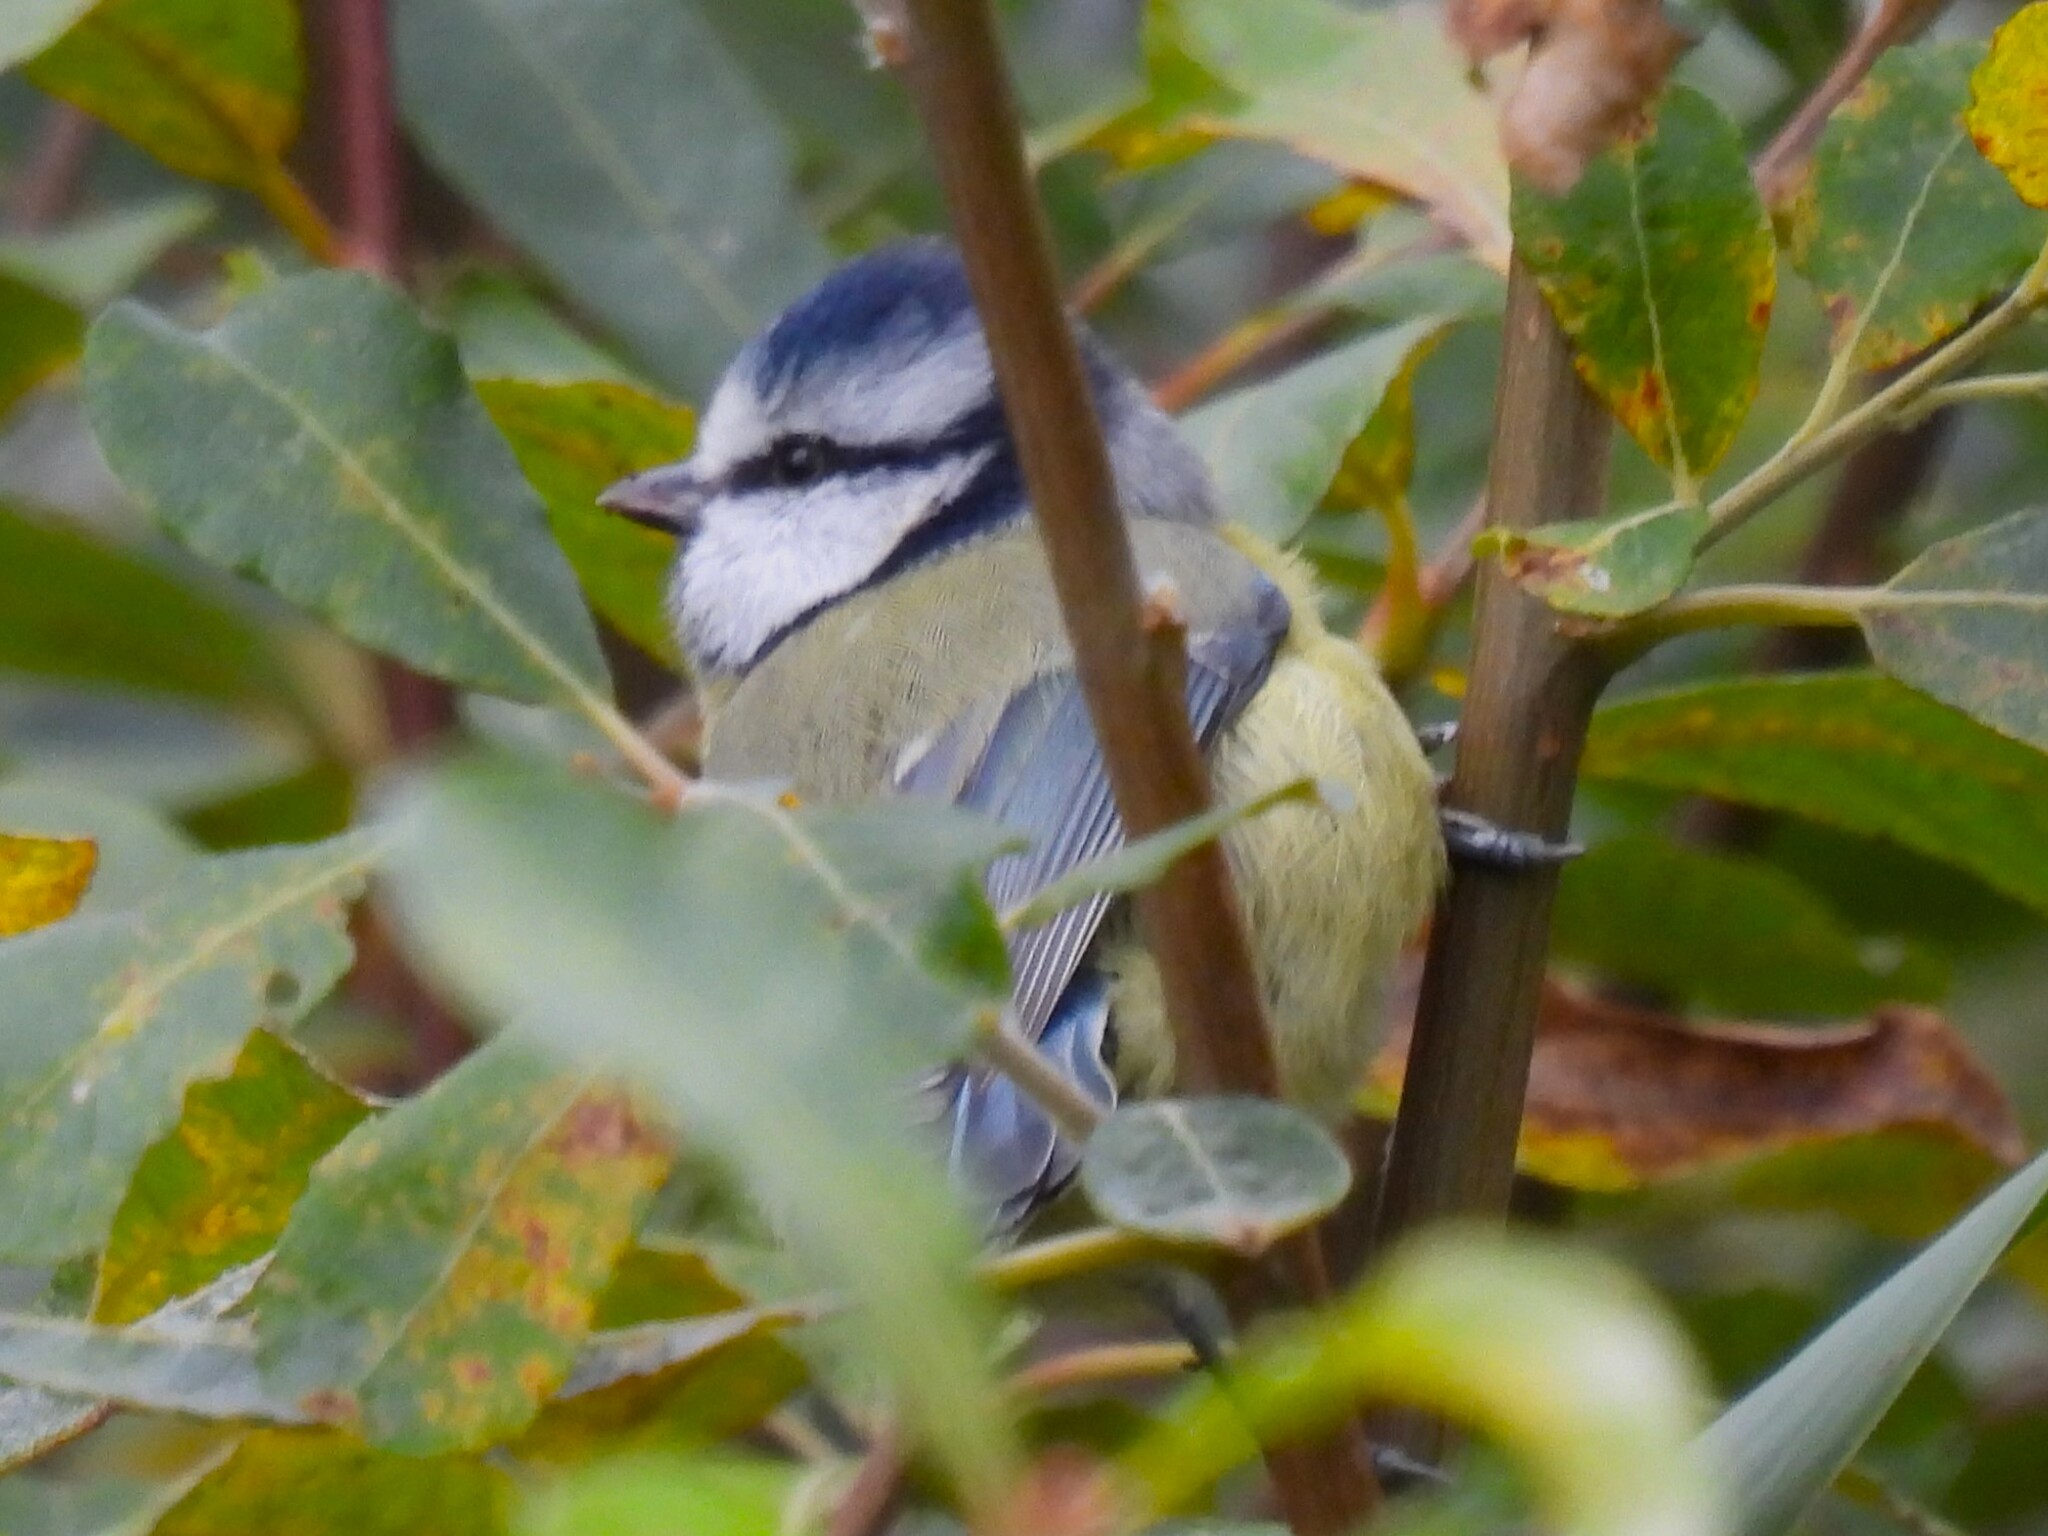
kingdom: Animalia
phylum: Chordata
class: Aves
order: Passeriformes
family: Paridae
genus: Cyanistes
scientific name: Cyanistes caeruleus
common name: Eurasian blue tit
